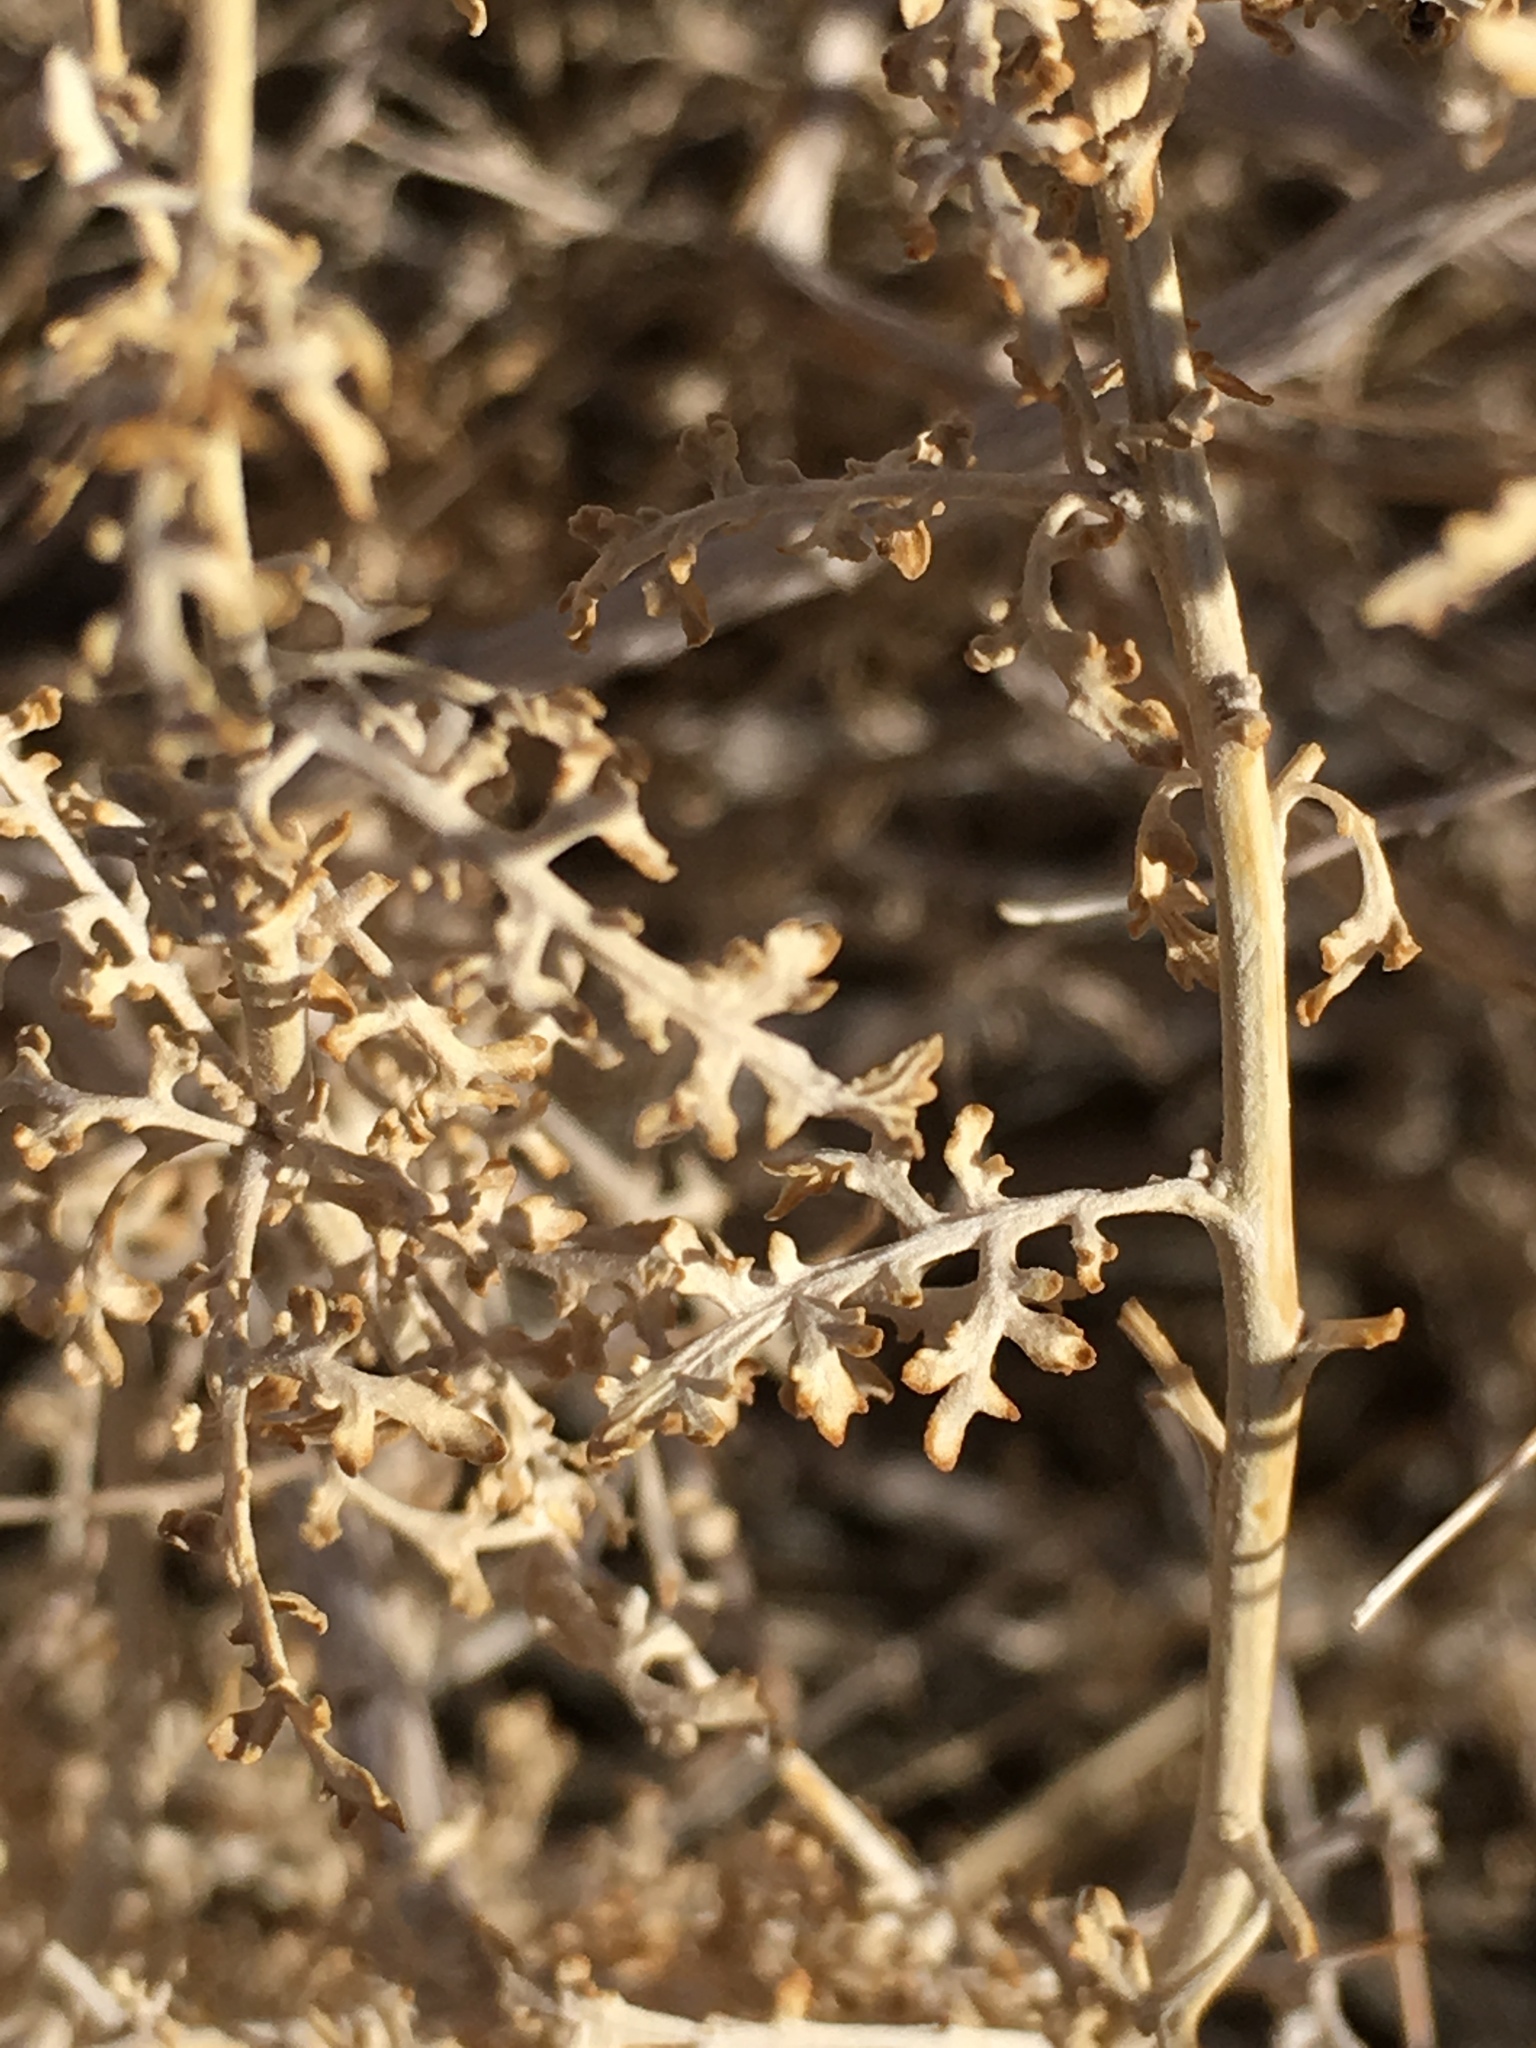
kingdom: Plantae
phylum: Tracheophyta
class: Magnoliopsida
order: Asterales
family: Asteraceae
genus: Ambrosia
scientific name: Ambrosia dumosa
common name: Bur-sage
